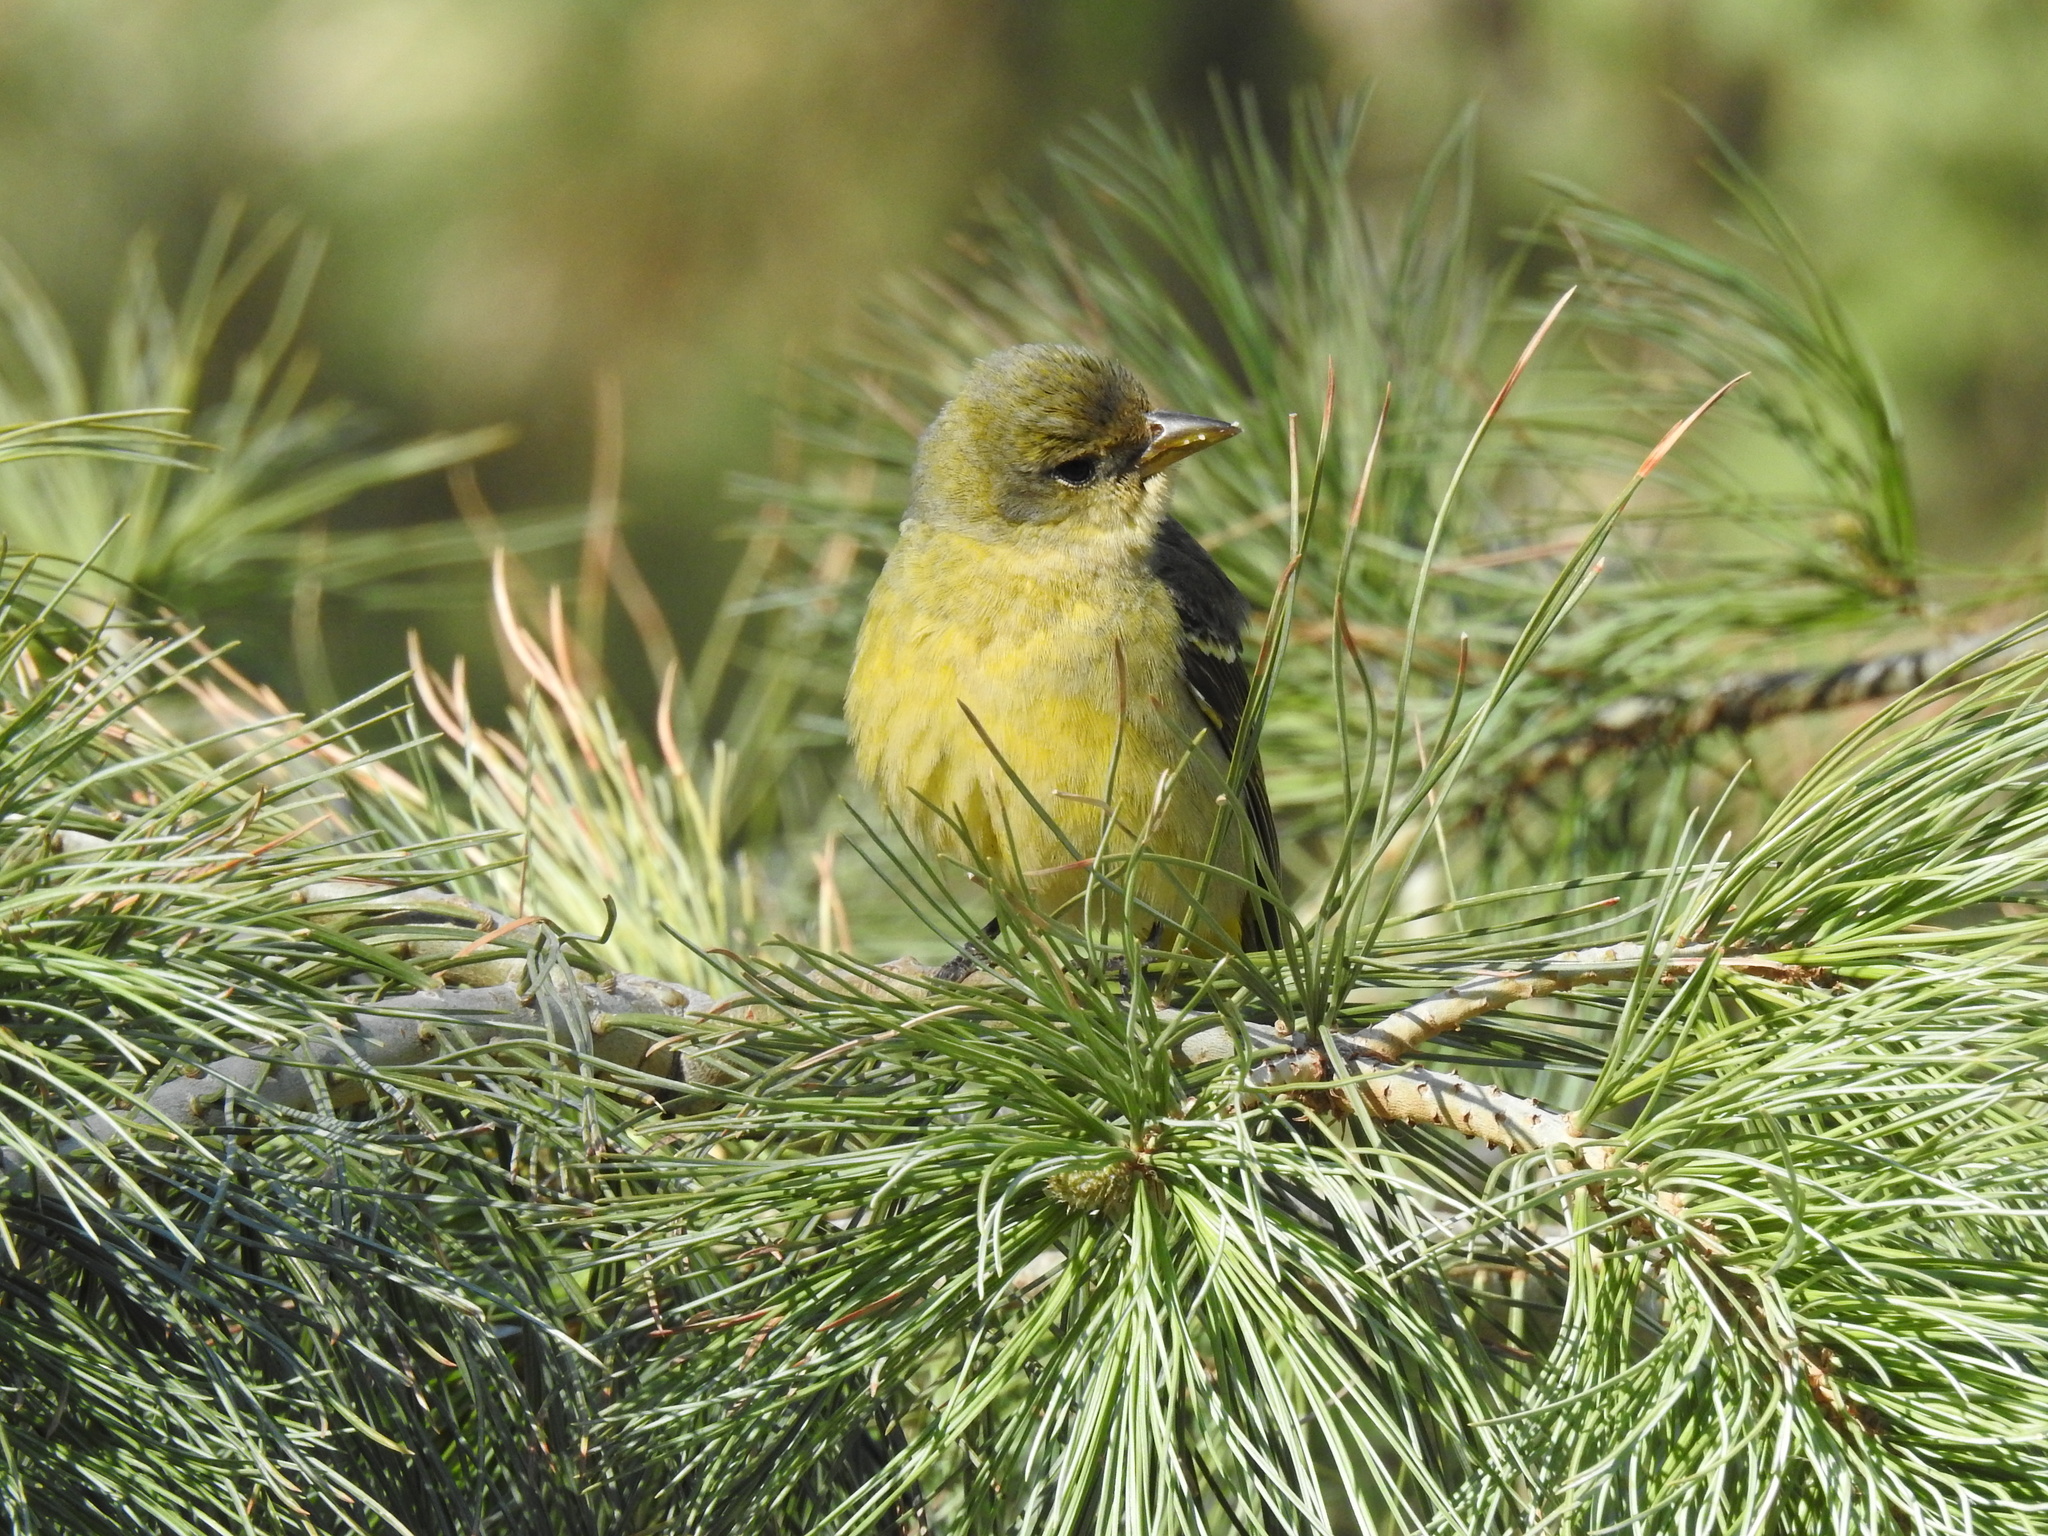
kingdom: Animalia
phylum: Chordata
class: Aves
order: Passeriformes
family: Cardinalidae
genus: Piranga
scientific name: Piranga ludoviciana
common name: Western tanager
